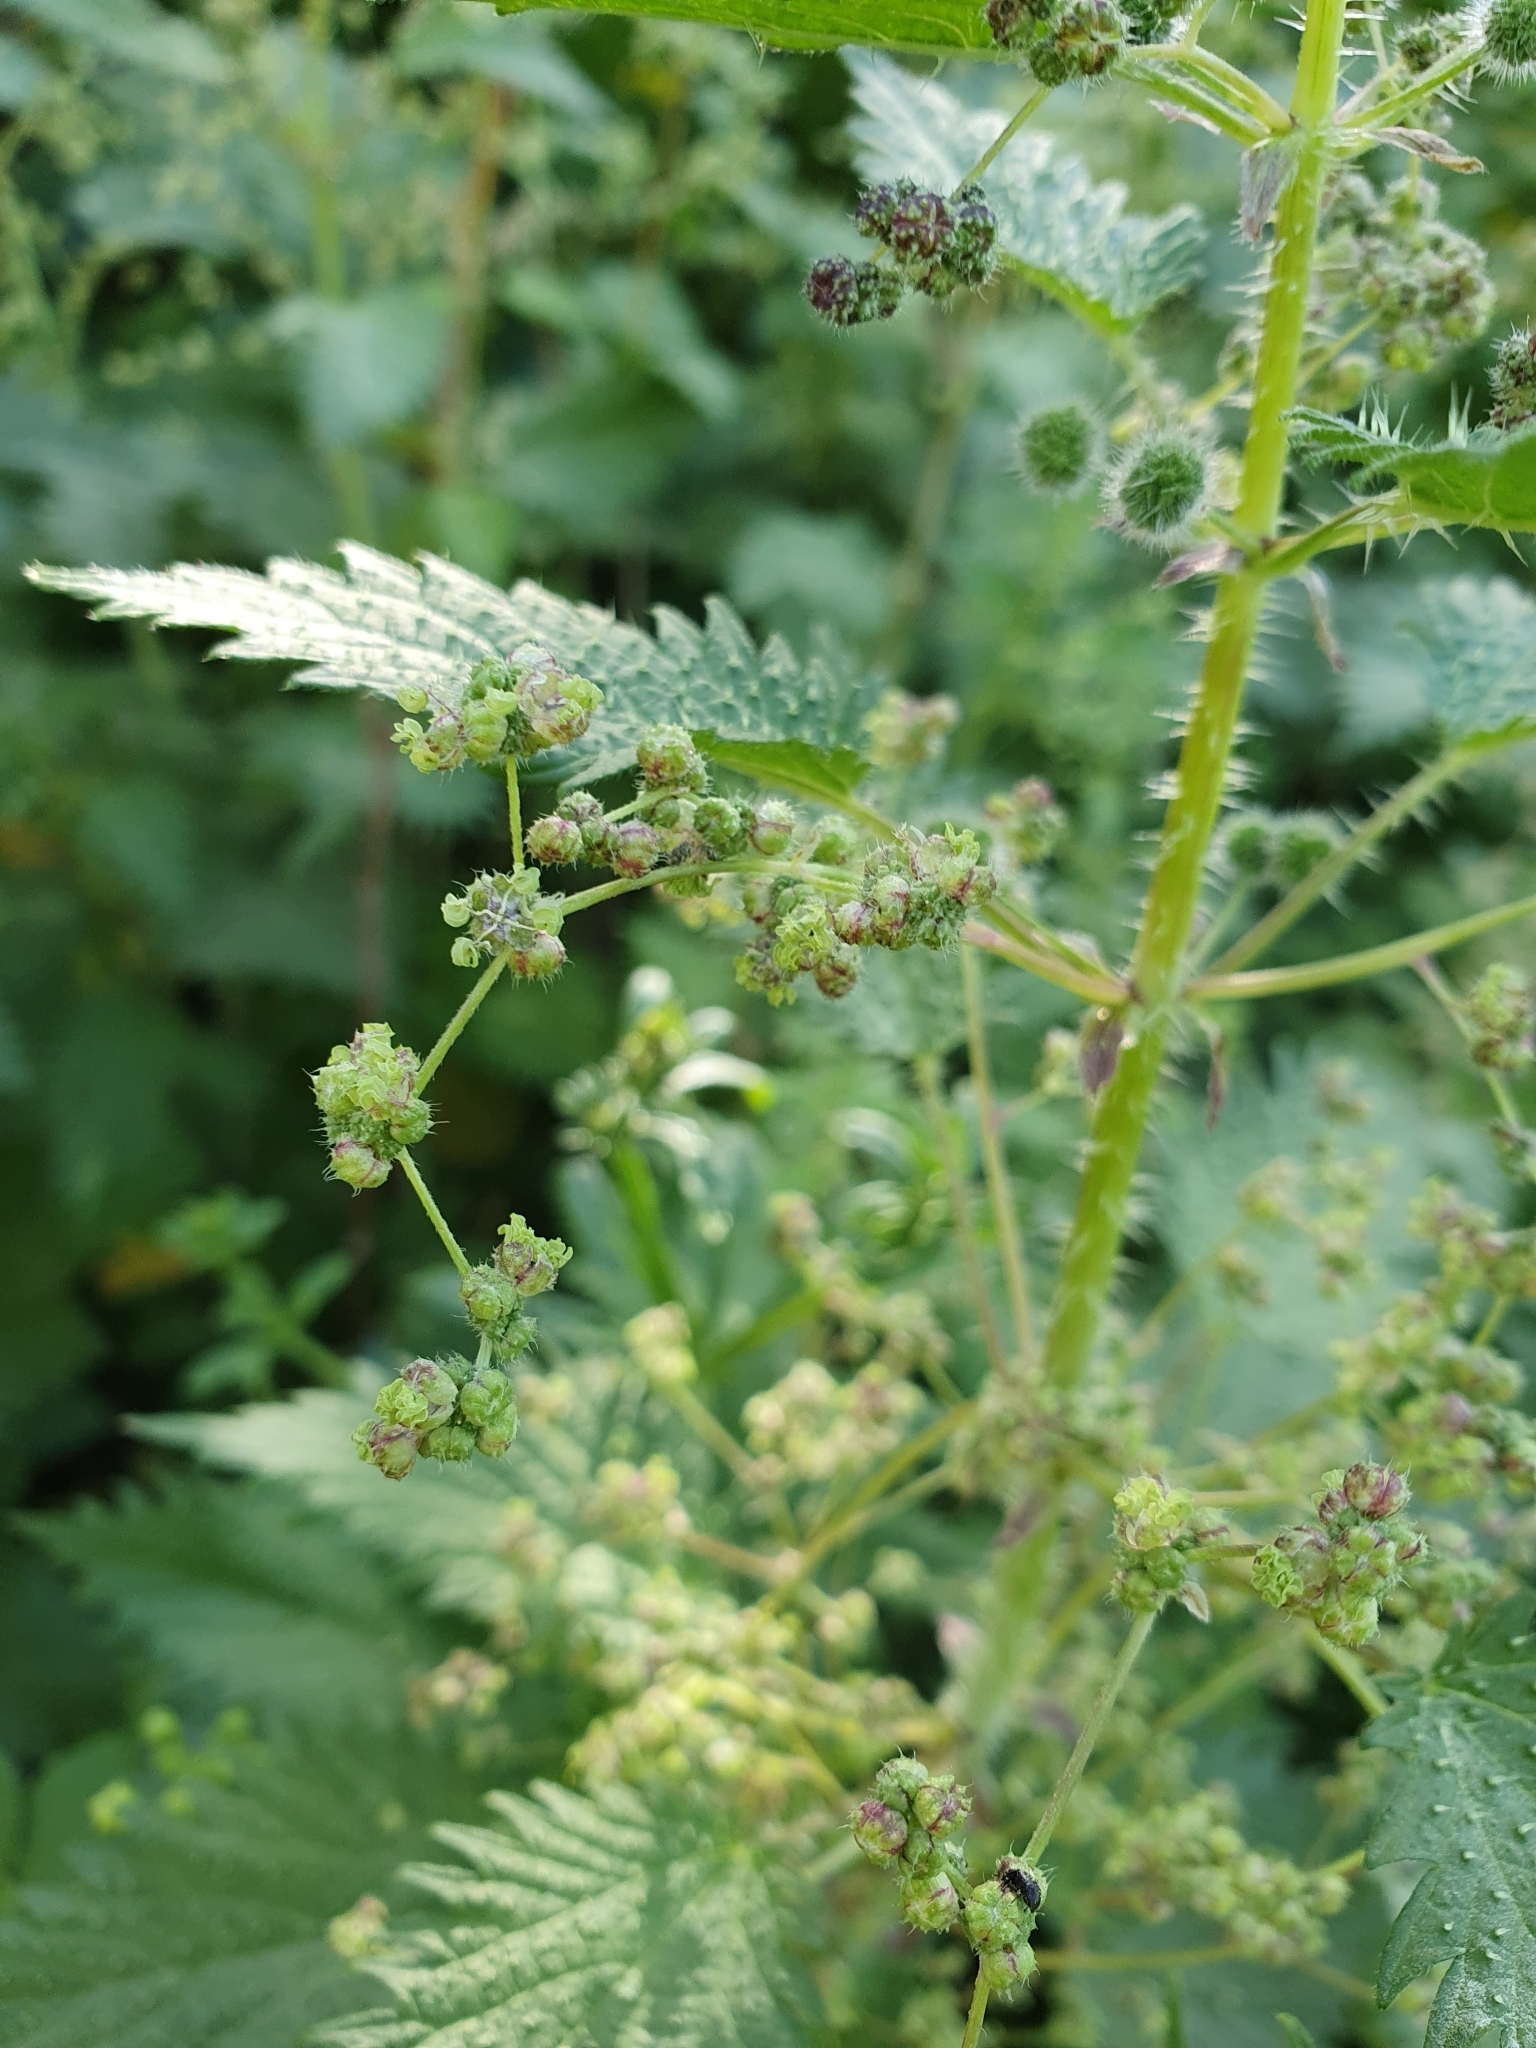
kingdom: Plantae
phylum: Tracheophyta
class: Magnoliopsida
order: Rosales
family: Urticaceae
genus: Urtica
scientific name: Urtica pilulifera
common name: Roman nettle
